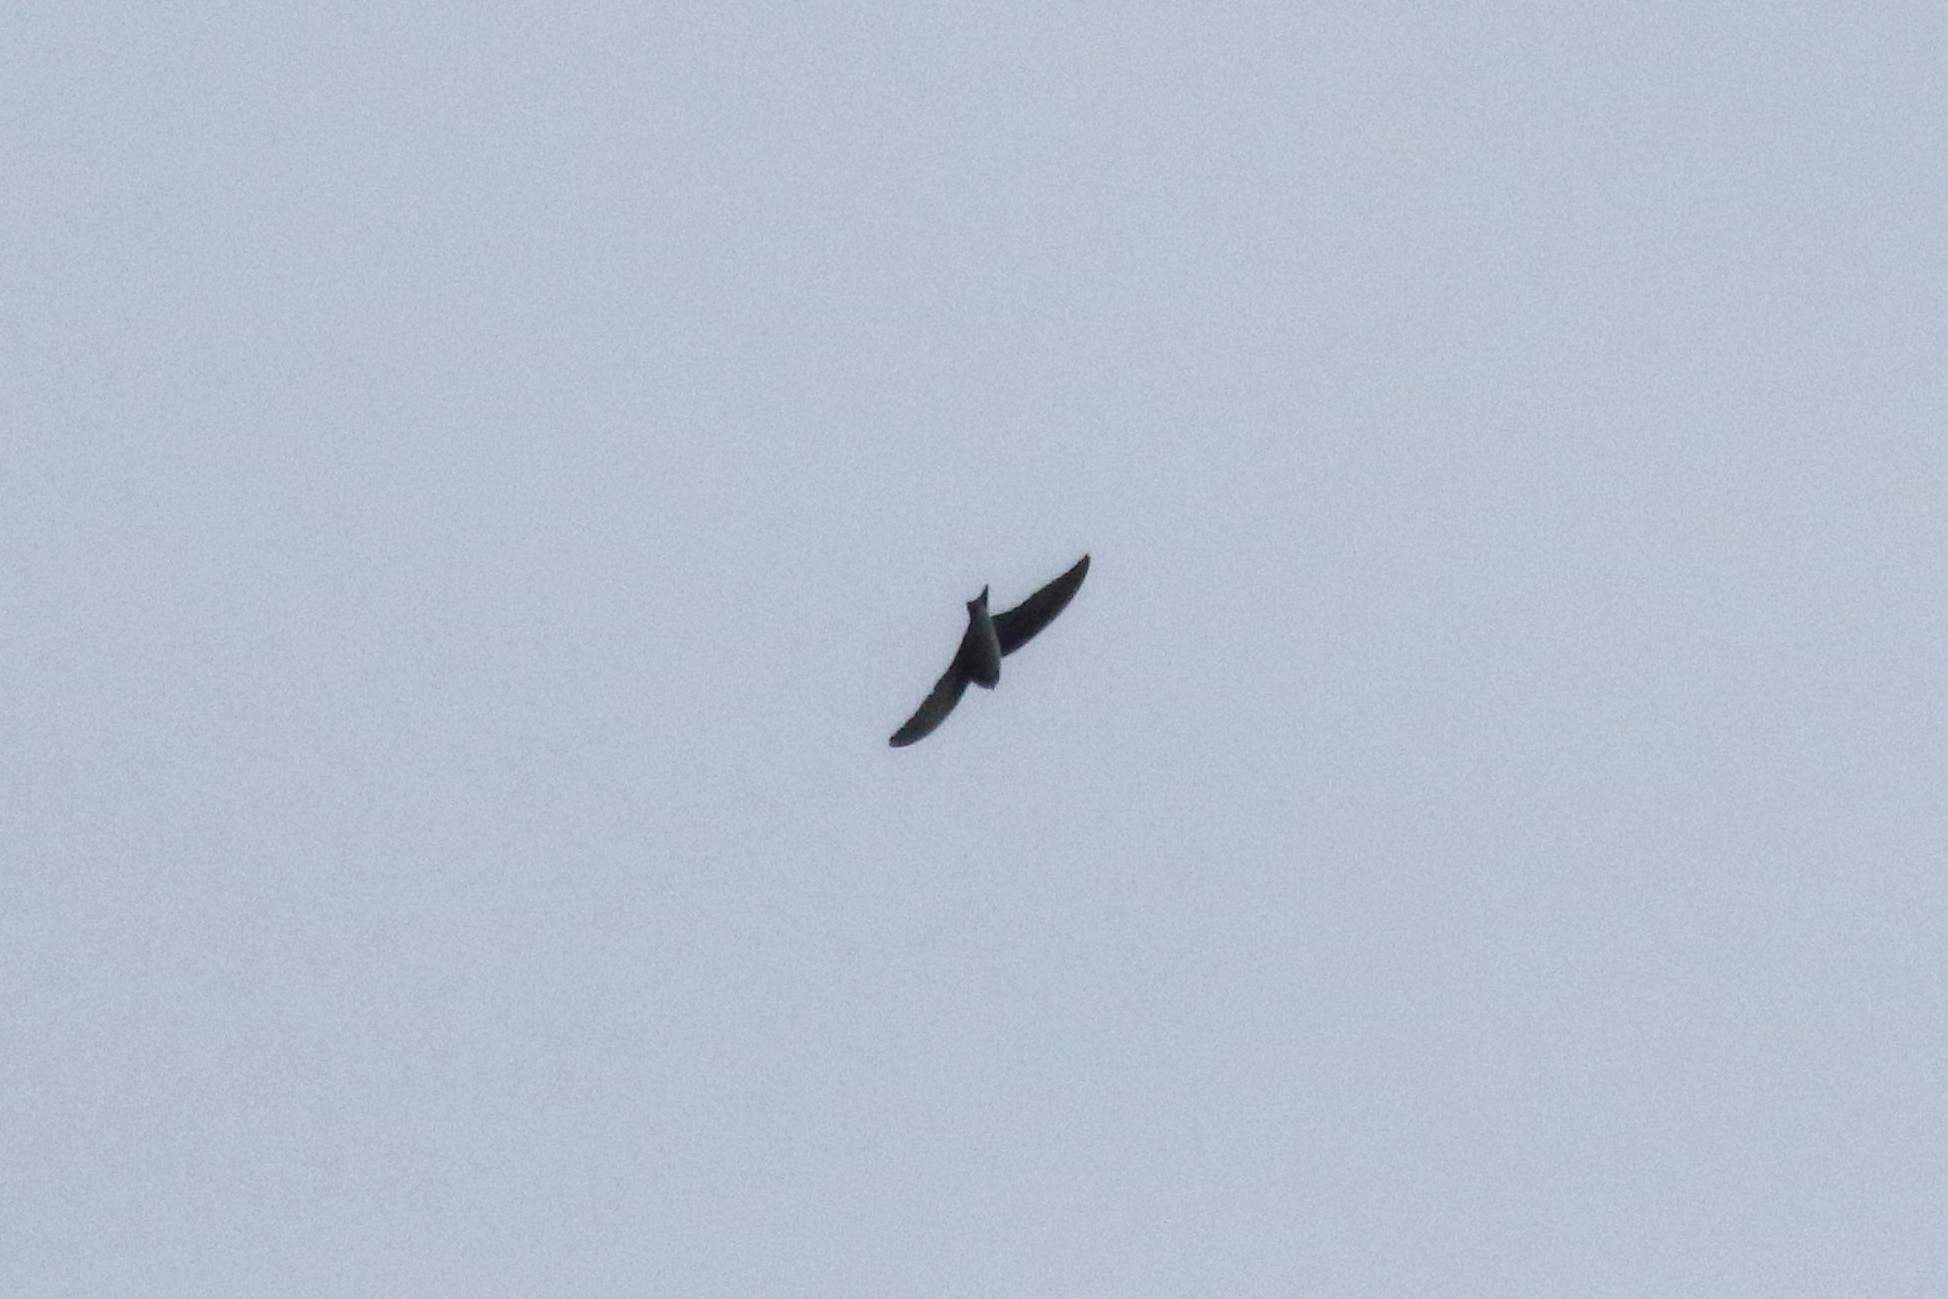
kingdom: Animalia
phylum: Chordata
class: Aves
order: Passeriformes
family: Hirundinidae
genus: Riparia
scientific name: Riparia riparia
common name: Sand martin
